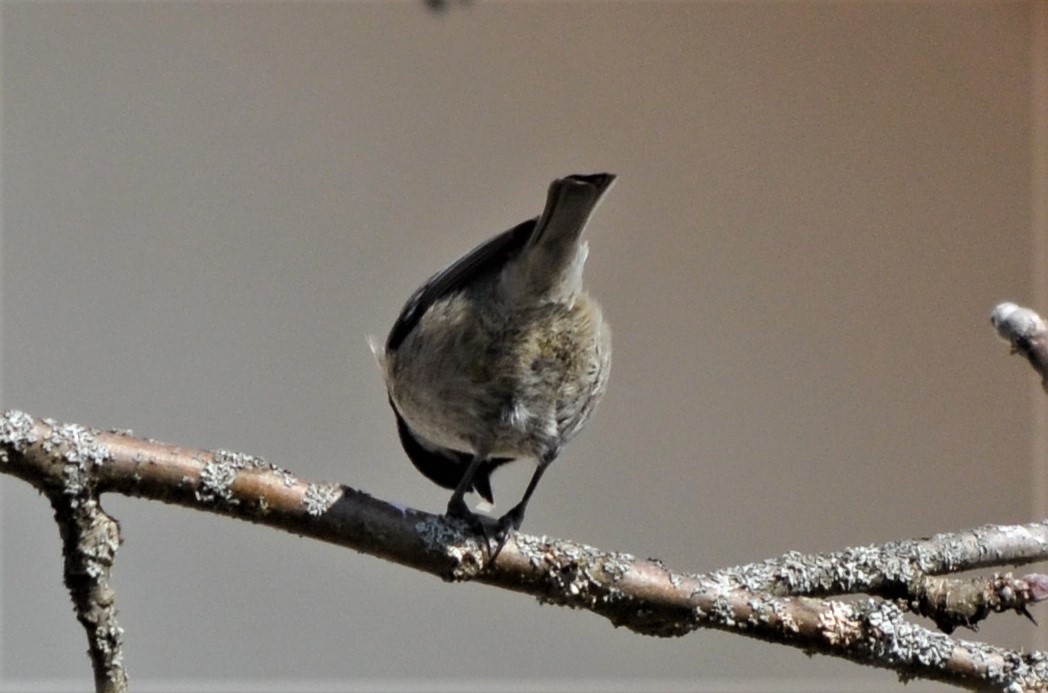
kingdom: Animalia
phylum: Chordata
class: Aves
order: Passeriformes
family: Paridae
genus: Periparus
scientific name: Periparus ater
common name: Coal tit
